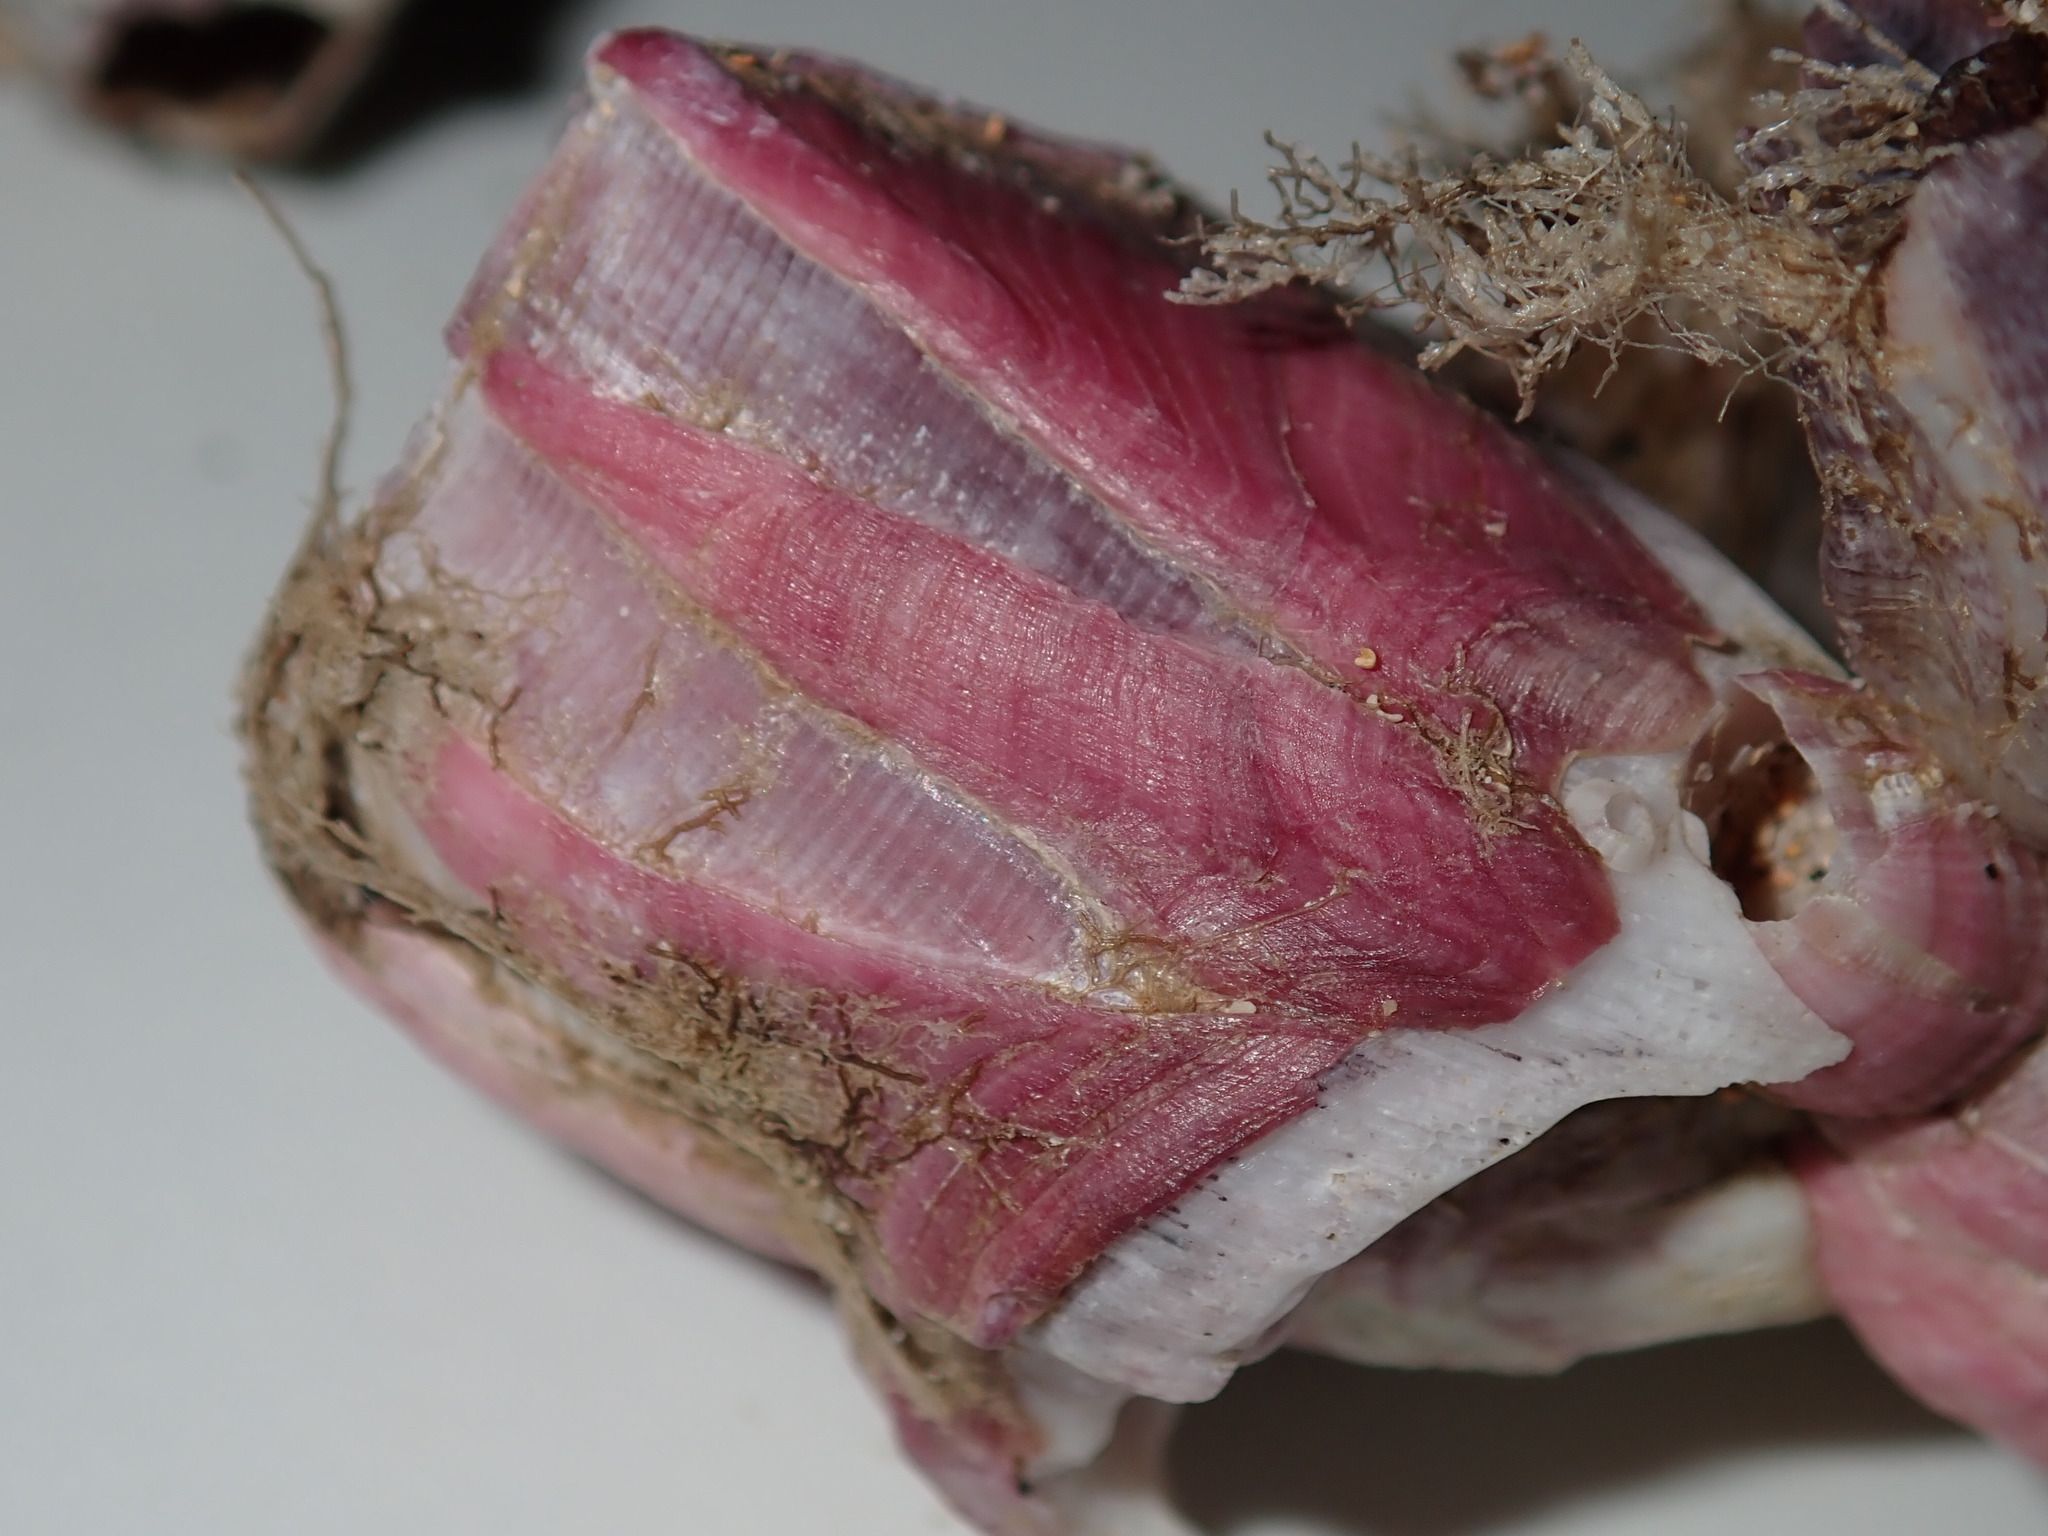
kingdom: Animalia
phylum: Arthropoda
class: Maxillopoda
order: Sessilia
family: Balanidae
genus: Megabalanus
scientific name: Megabalanus coccopoma
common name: Titan acorn barnacle
